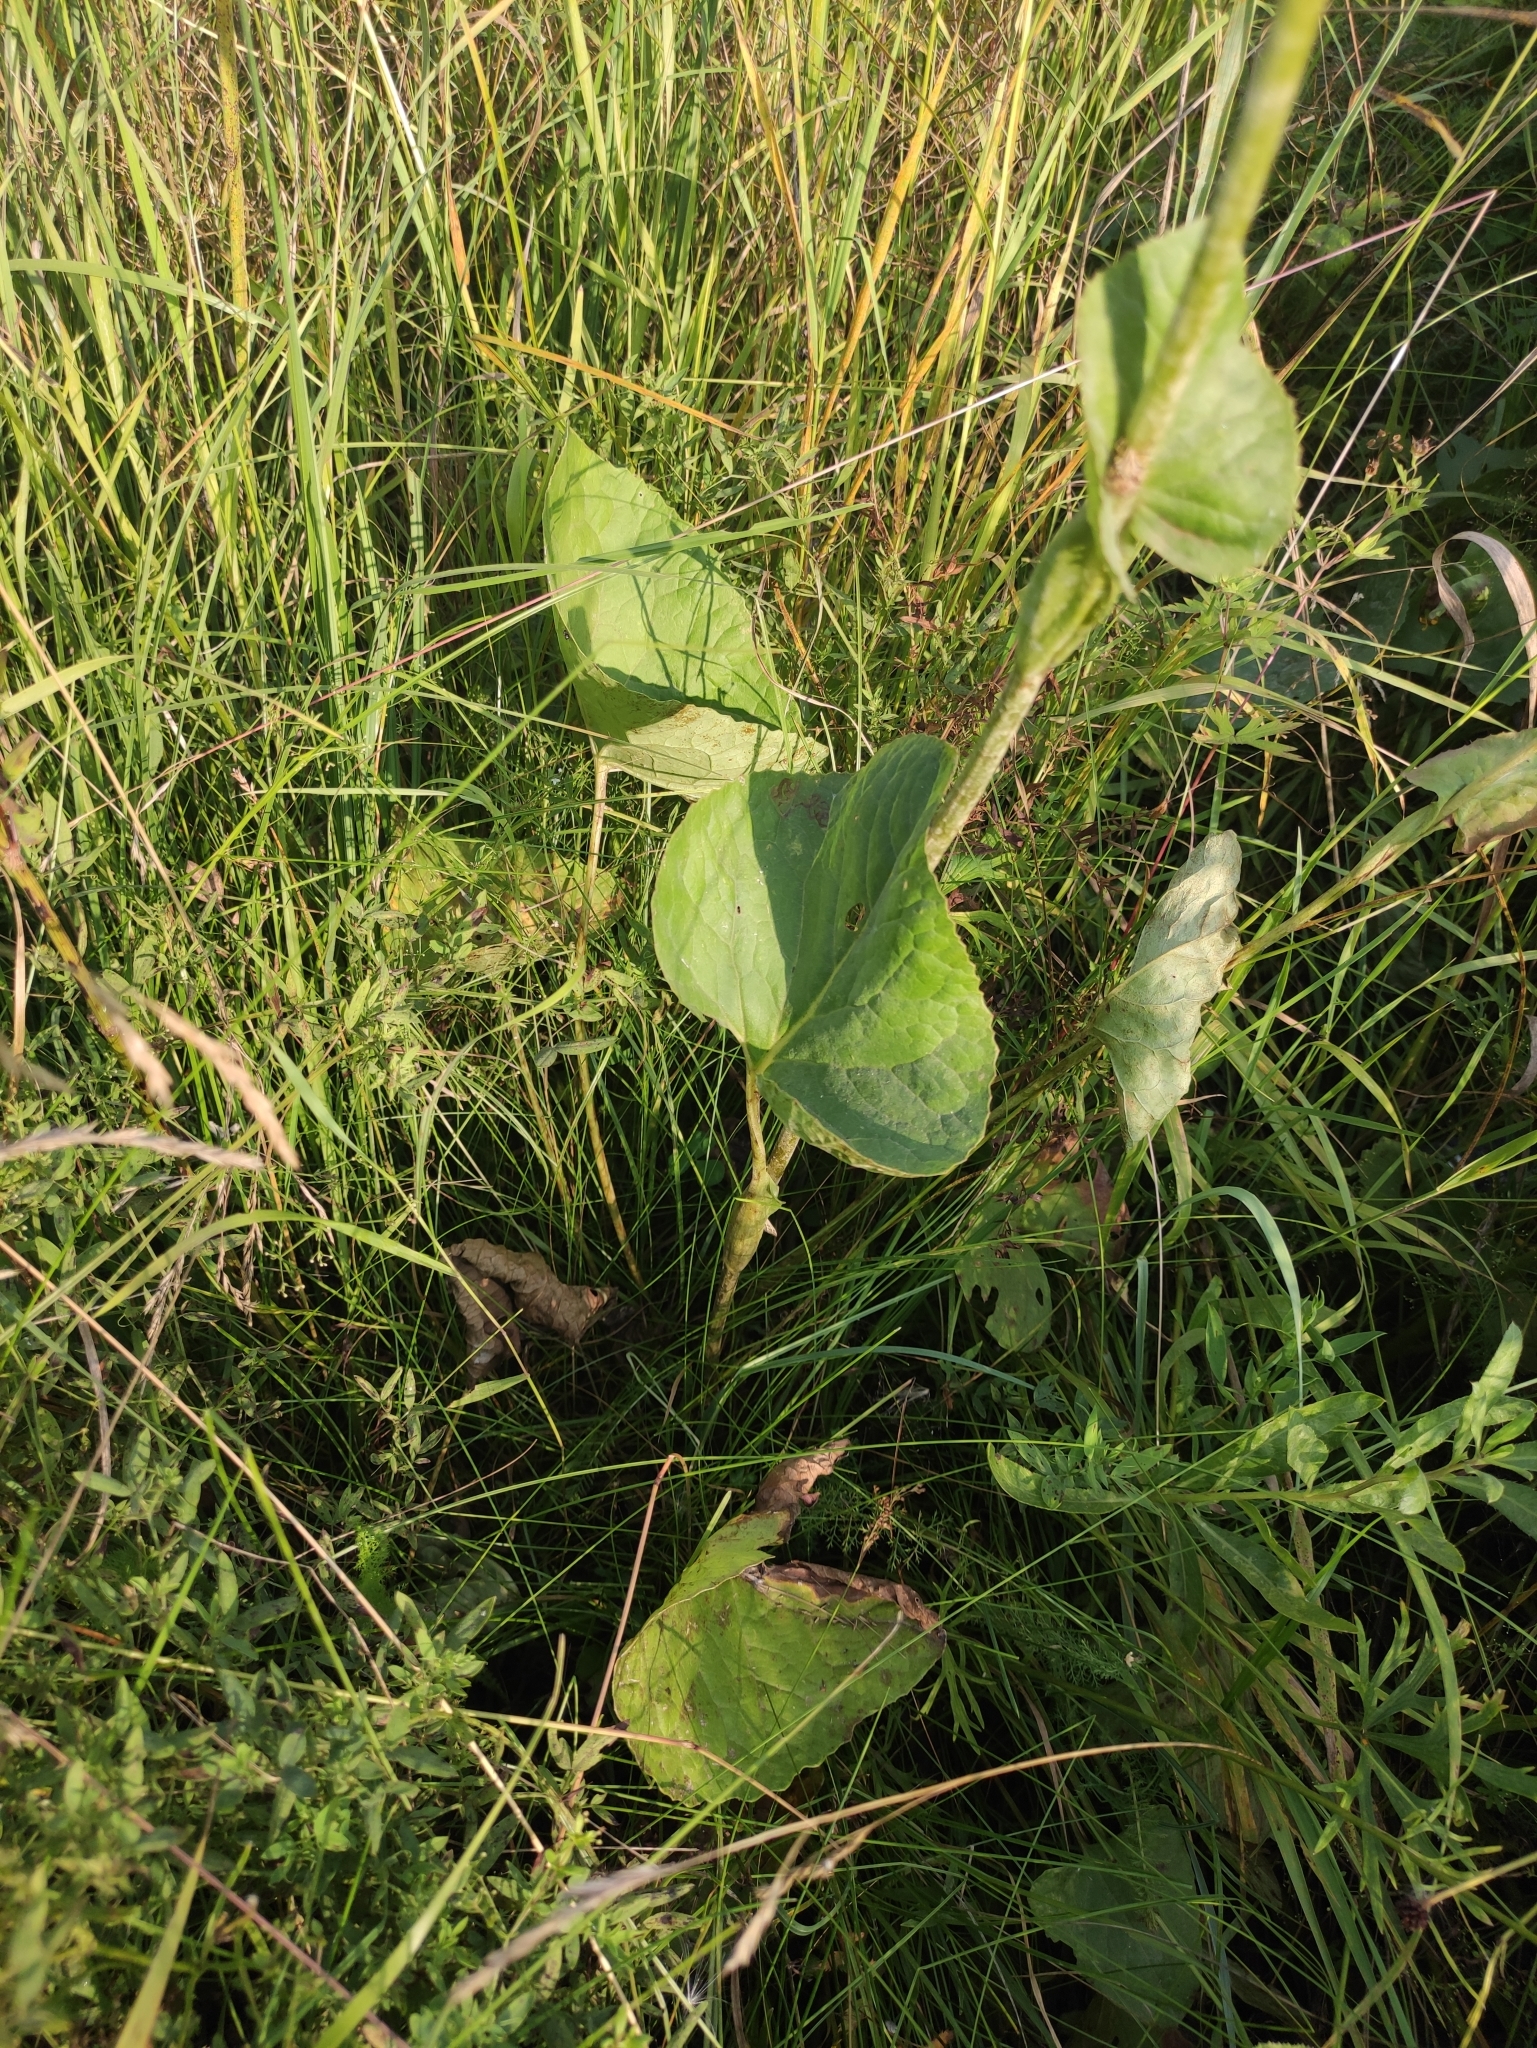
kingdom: Plantae
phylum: Tracheophyta
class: Magnoliopsida
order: Asterales
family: Asteraceae
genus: Ligularia
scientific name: Ligularia sibirica
